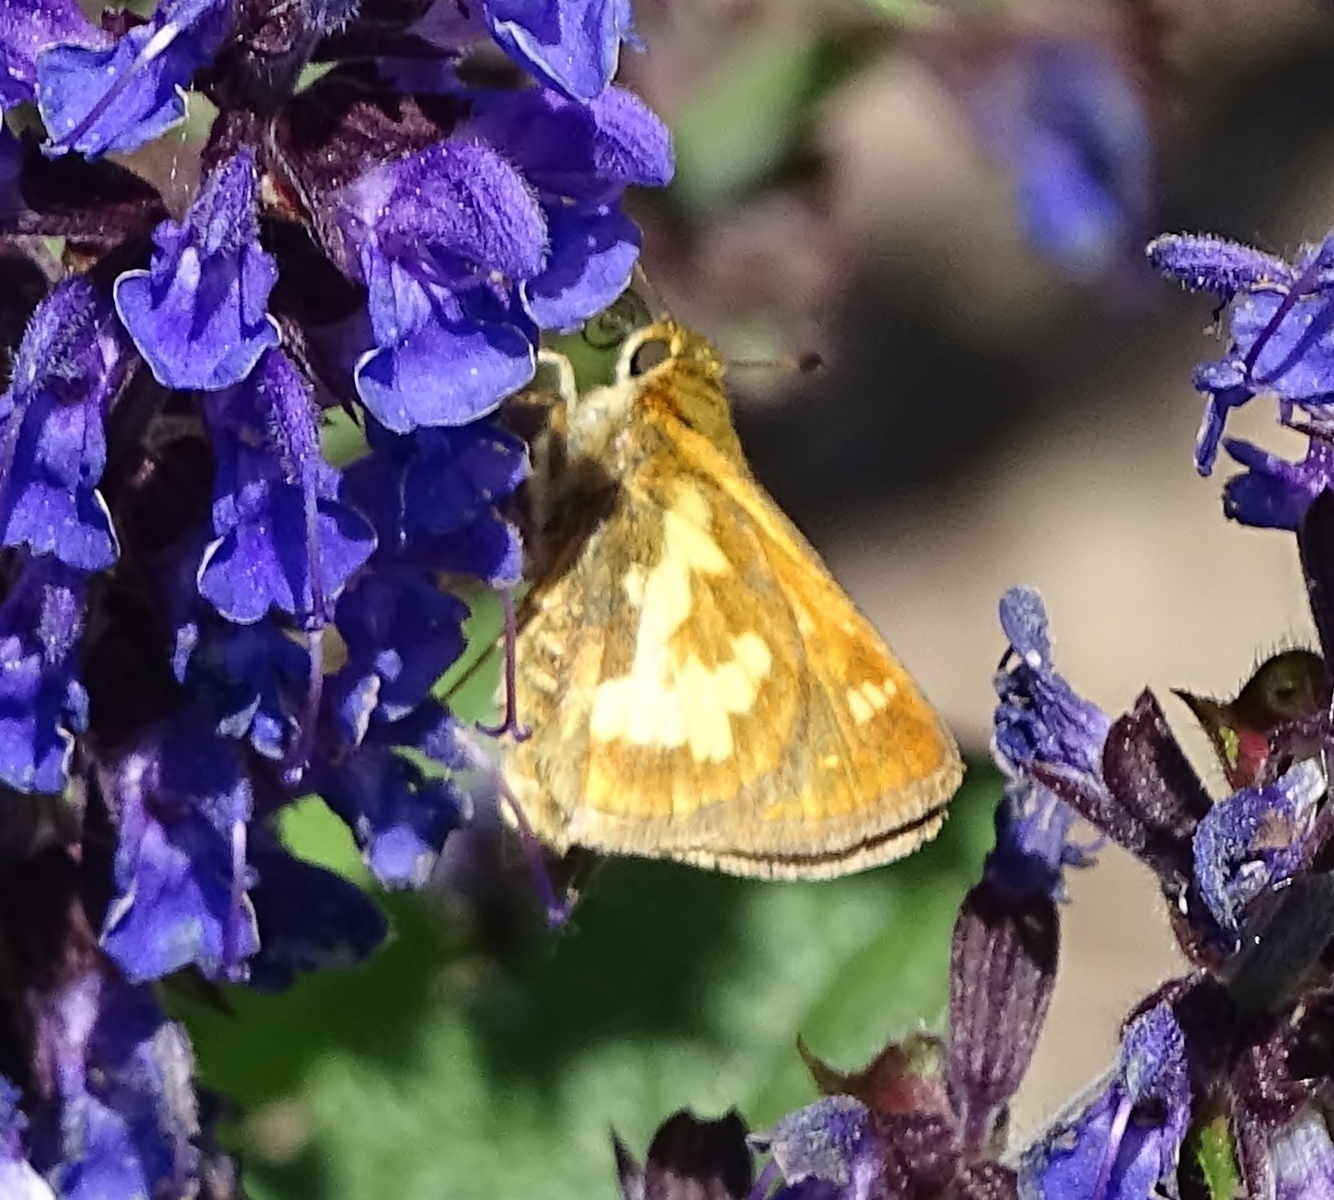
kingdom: Animalia
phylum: Arthropoda
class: Insecta
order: Lepidoptera
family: Hesperiidae
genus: Polites
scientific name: Polites coras
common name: Peck's skipper
